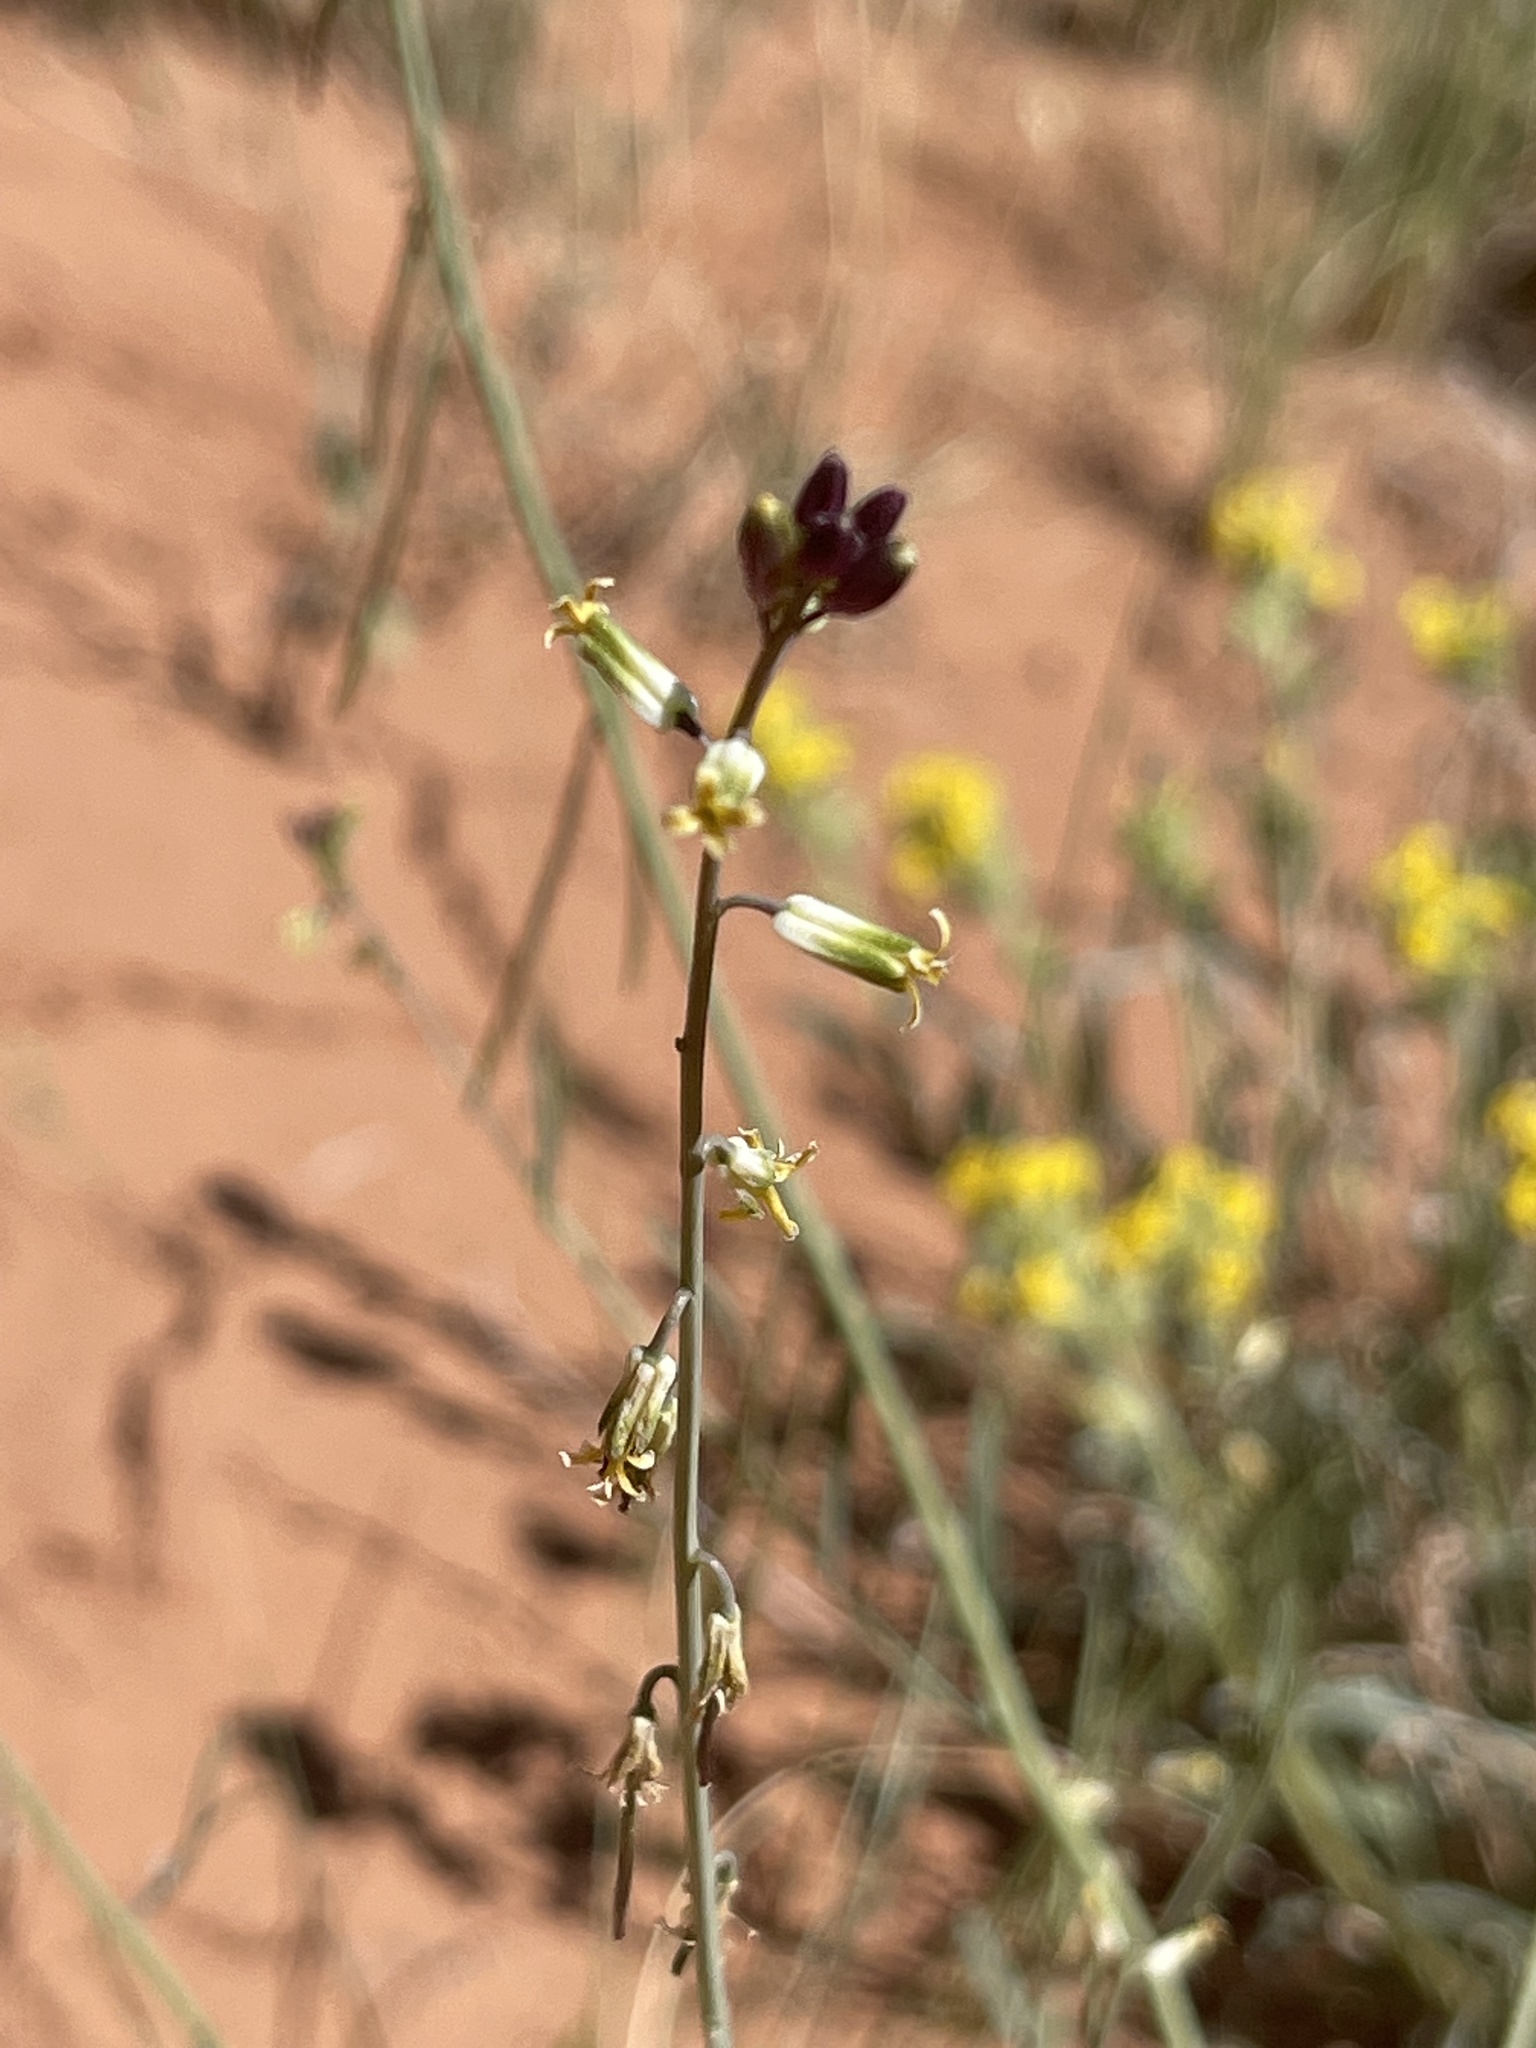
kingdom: Plantae
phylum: Tracheophyta
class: Magnoliopsida
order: Brassicales
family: Brassicaceae
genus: Streptanthus
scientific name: Streptanthus longirostris
